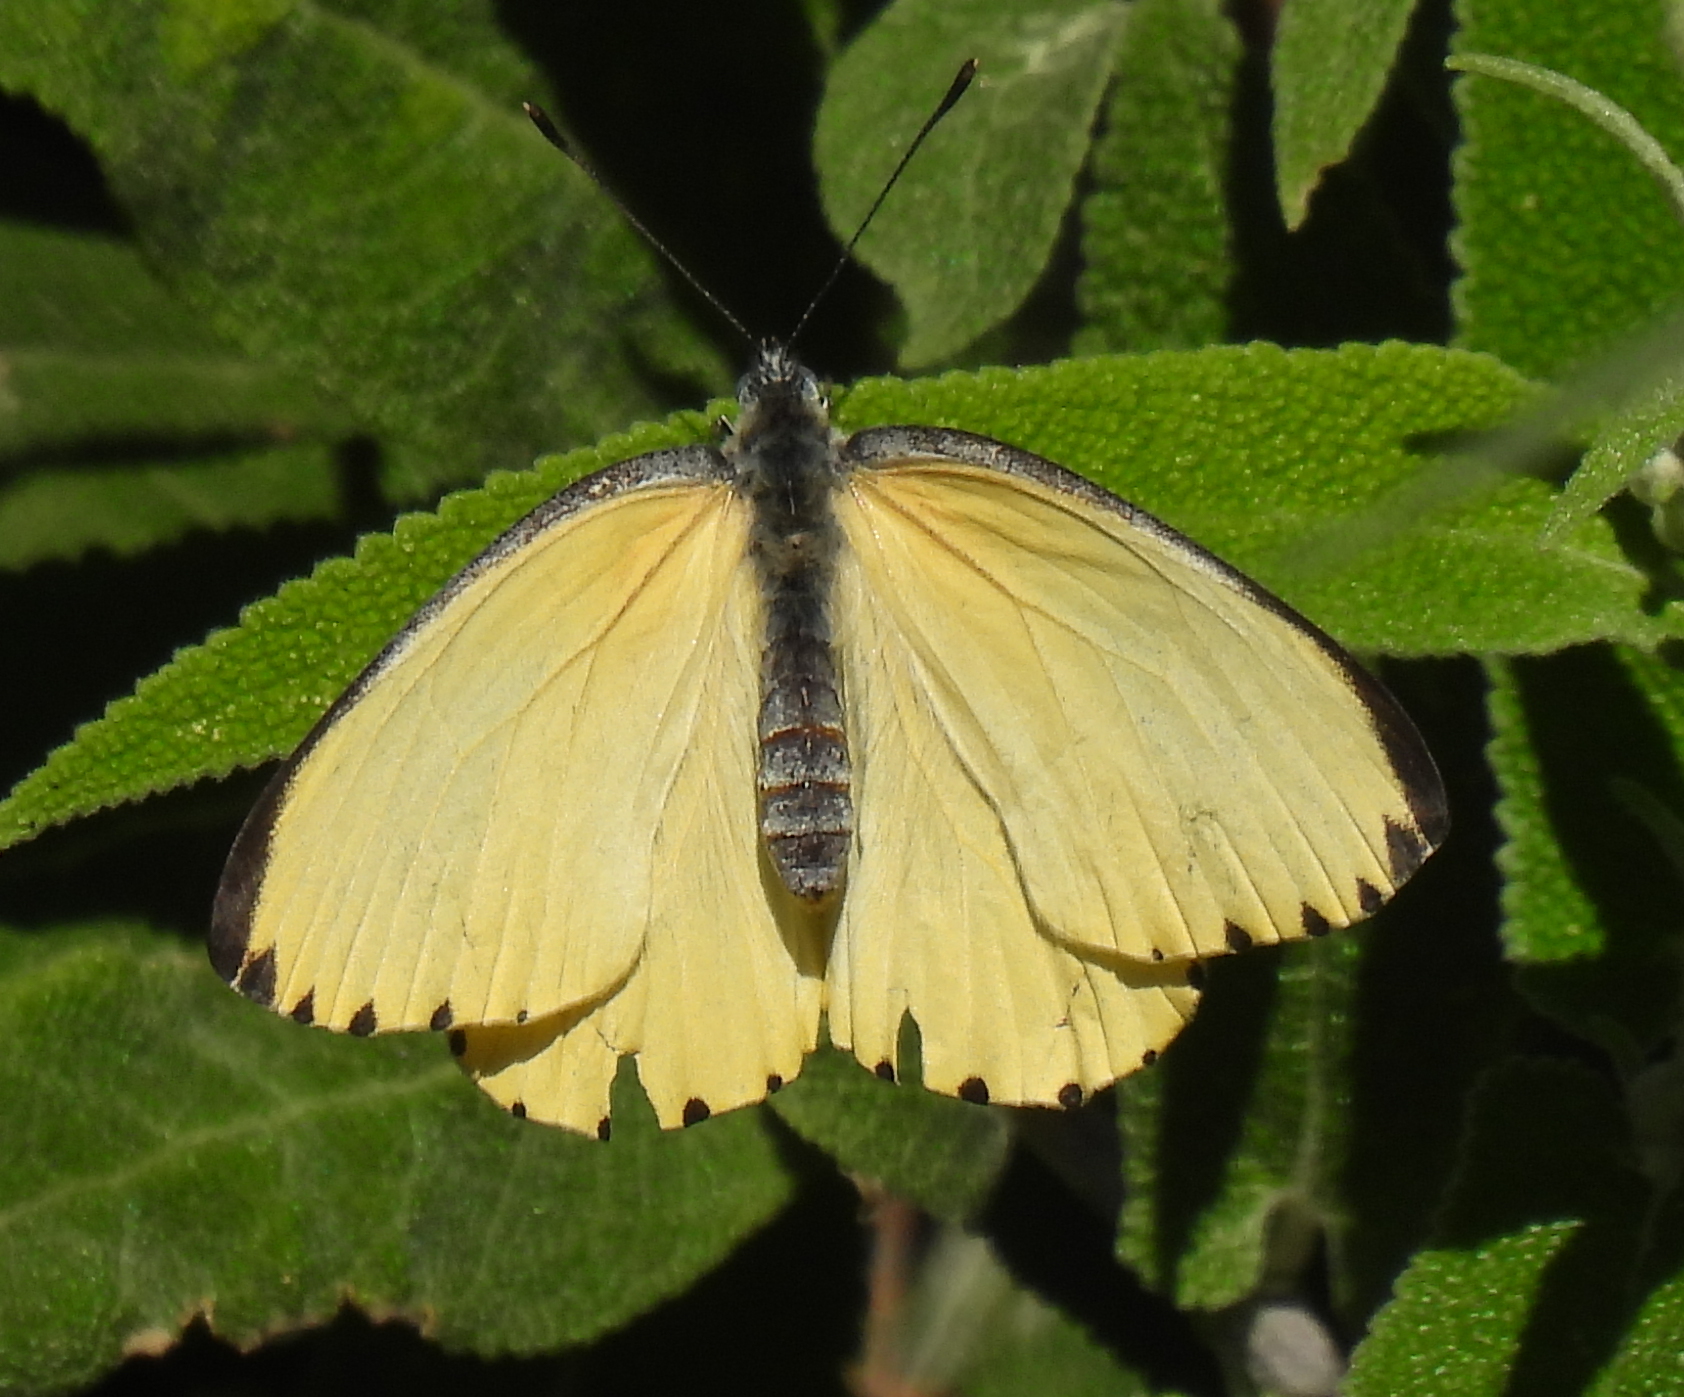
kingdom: Animalia
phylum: Arthropoda
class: Insecta
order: Lepidoptera
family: Pieridae
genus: Mylothris
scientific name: Mylothris agathina
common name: Eastern dotted border
